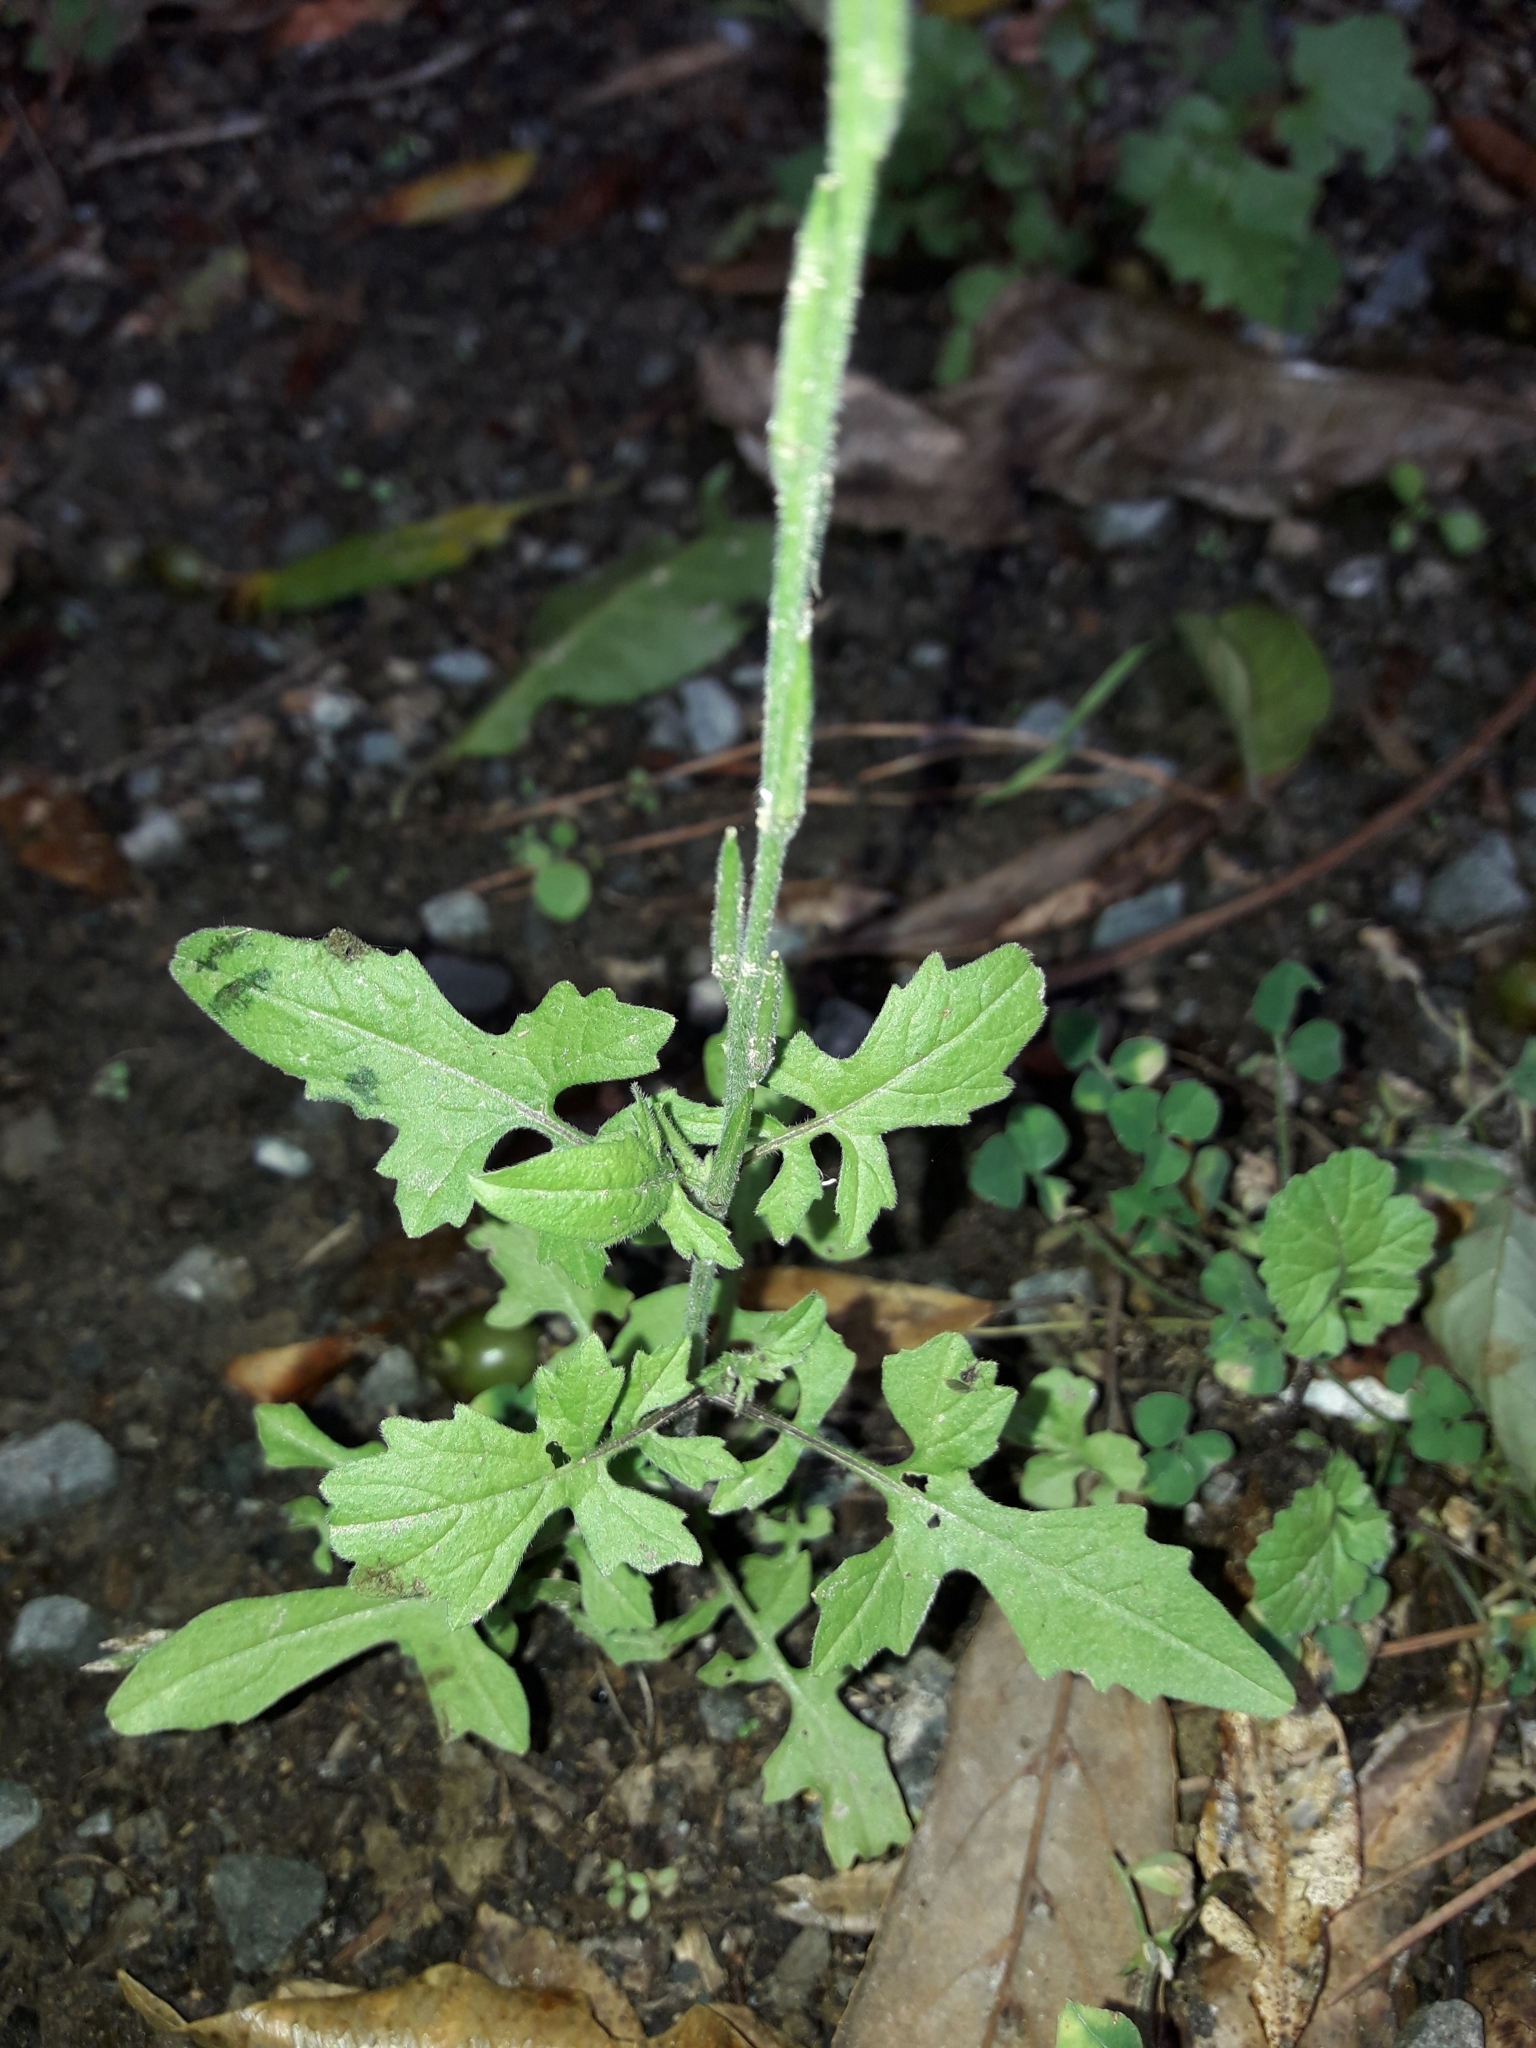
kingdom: Plantae
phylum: Tracheophyta
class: Magnoliopsida
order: Brassicales
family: Brassicaceae
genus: Sisymbrium
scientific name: Sisymbrium officinale
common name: Hedge mustard
